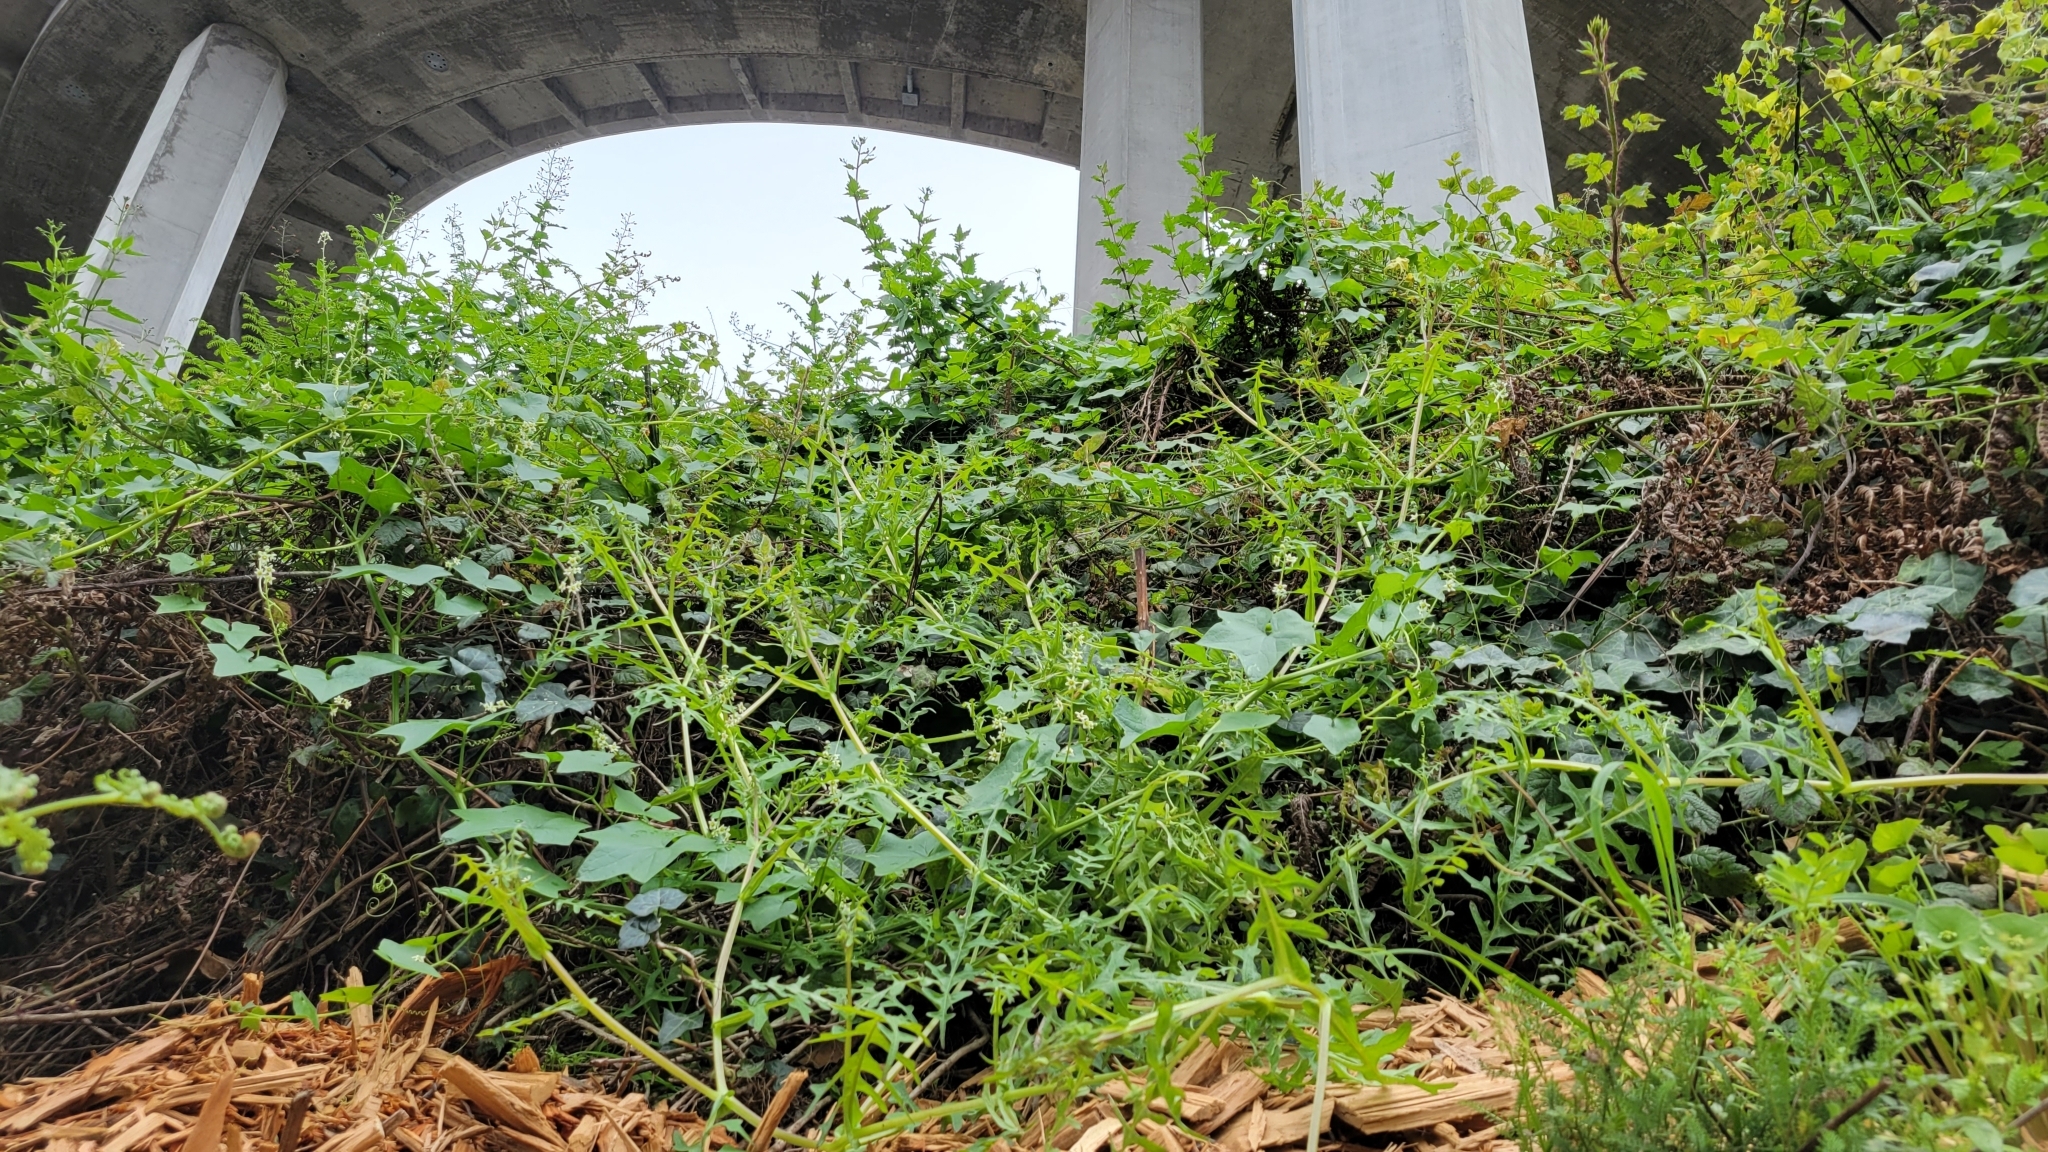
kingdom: Plantae
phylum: Tracheophyta
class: Magnoliopsida
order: Boraginales
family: Hydrophyllaceae
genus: Pholistoma
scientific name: Pholistoma auritum
